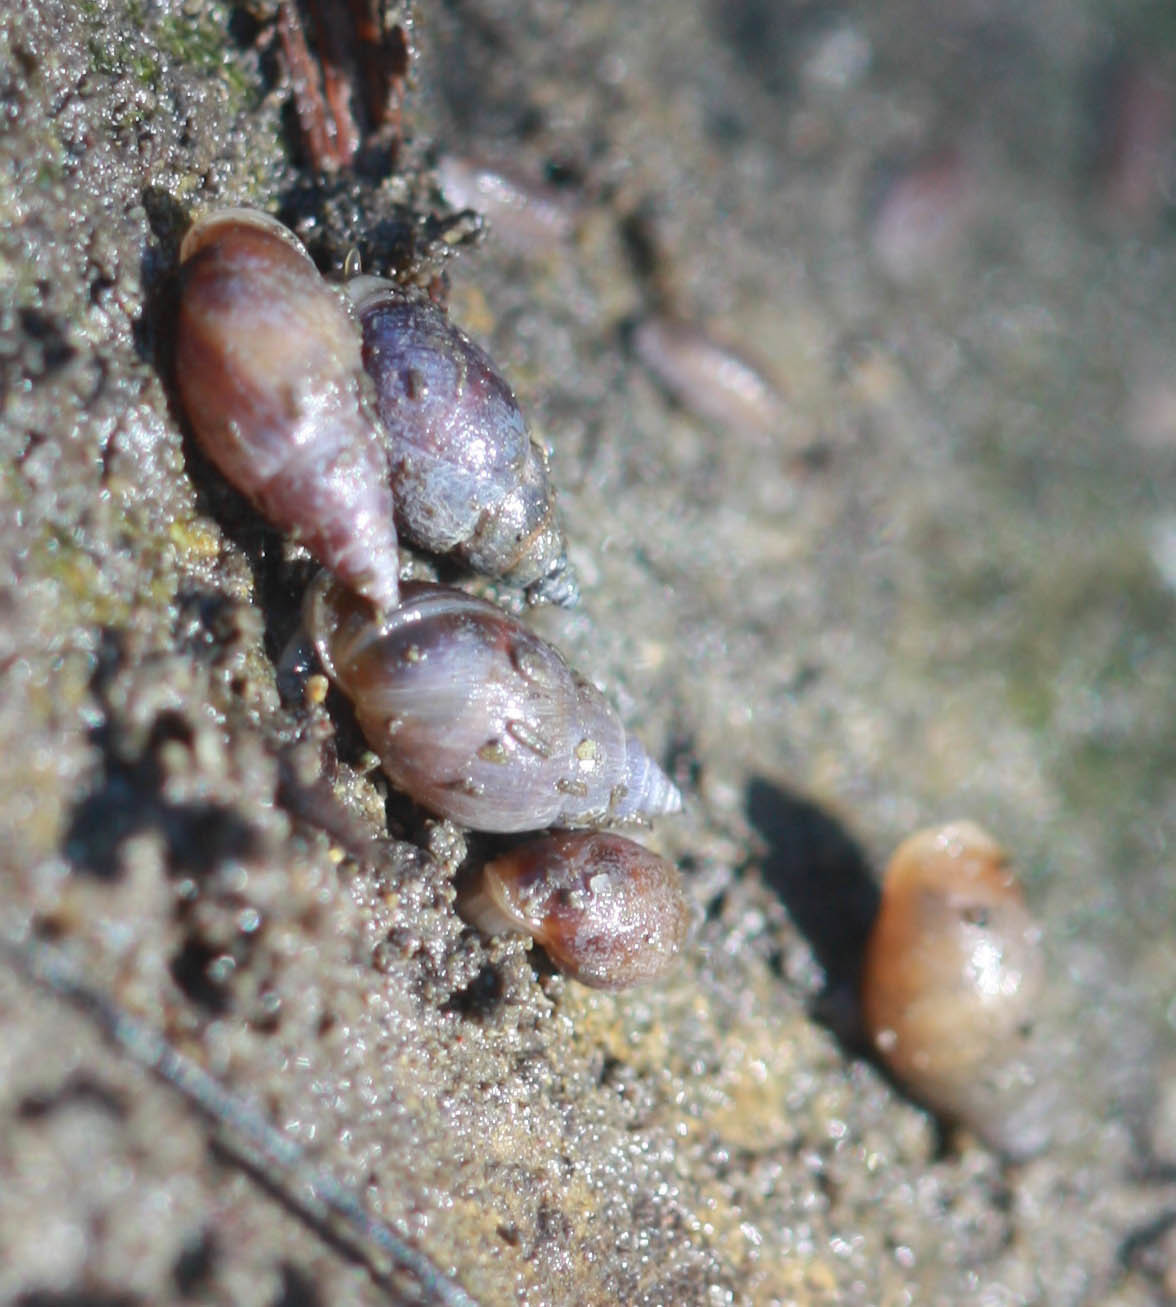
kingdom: Animalia
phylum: Mollusca
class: Gastropoda
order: Ellobiida
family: Ellobiidae
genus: Myosotella
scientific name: Myosotella myosotis
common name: Mouse-eared snail
